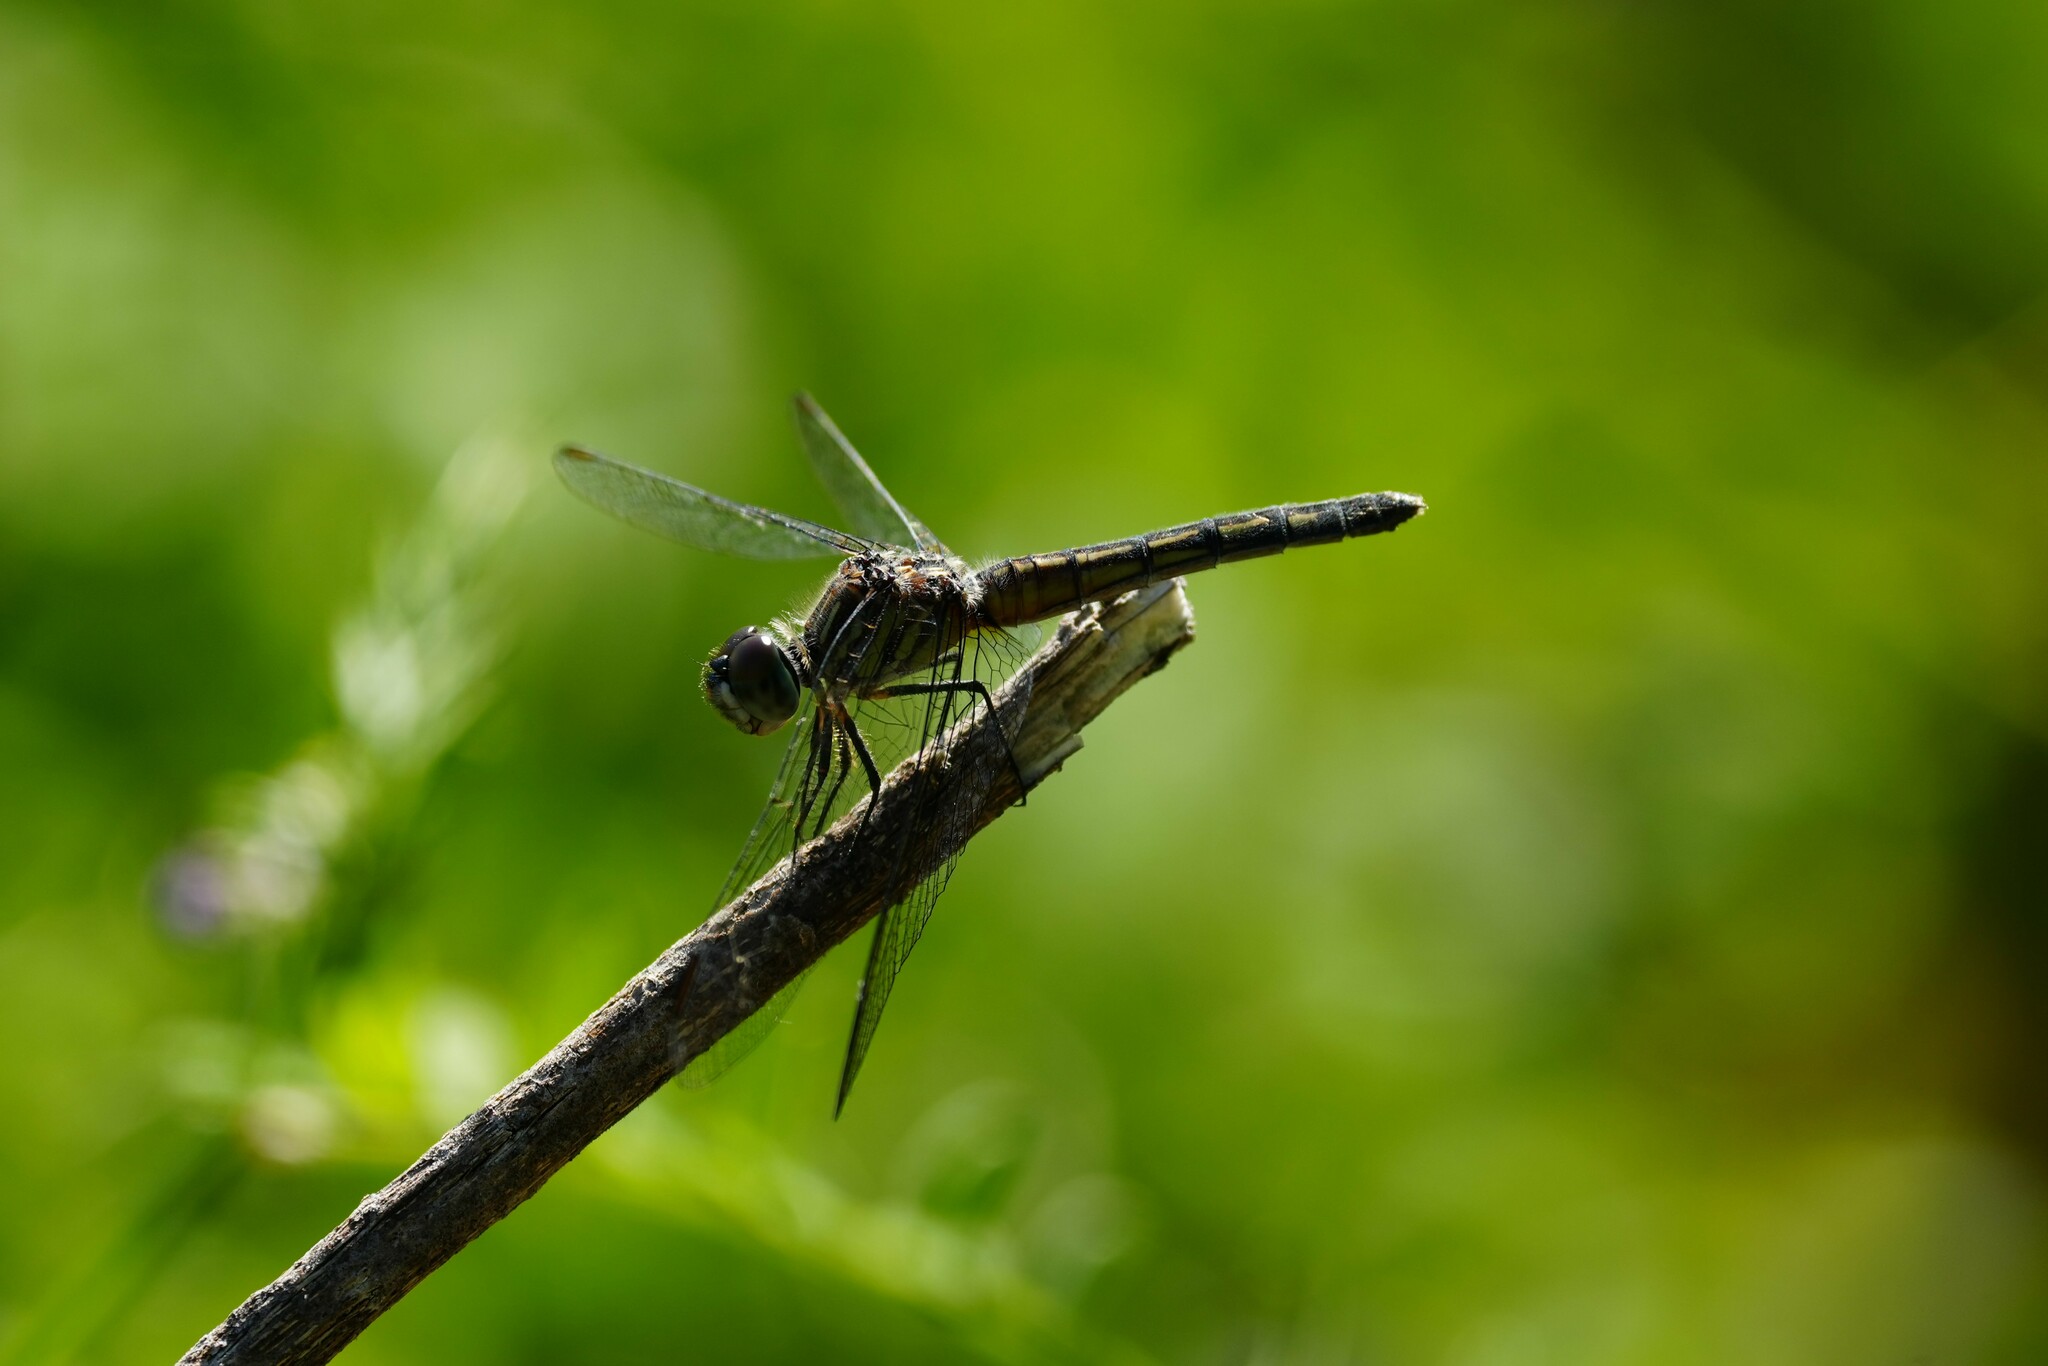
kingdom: Animalia
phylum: Arthropoda
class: Insecta
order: Odonata
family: Libellulidae
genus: Pachydiplax
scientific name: Pachydiplax longipennis
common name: Blue dasher
